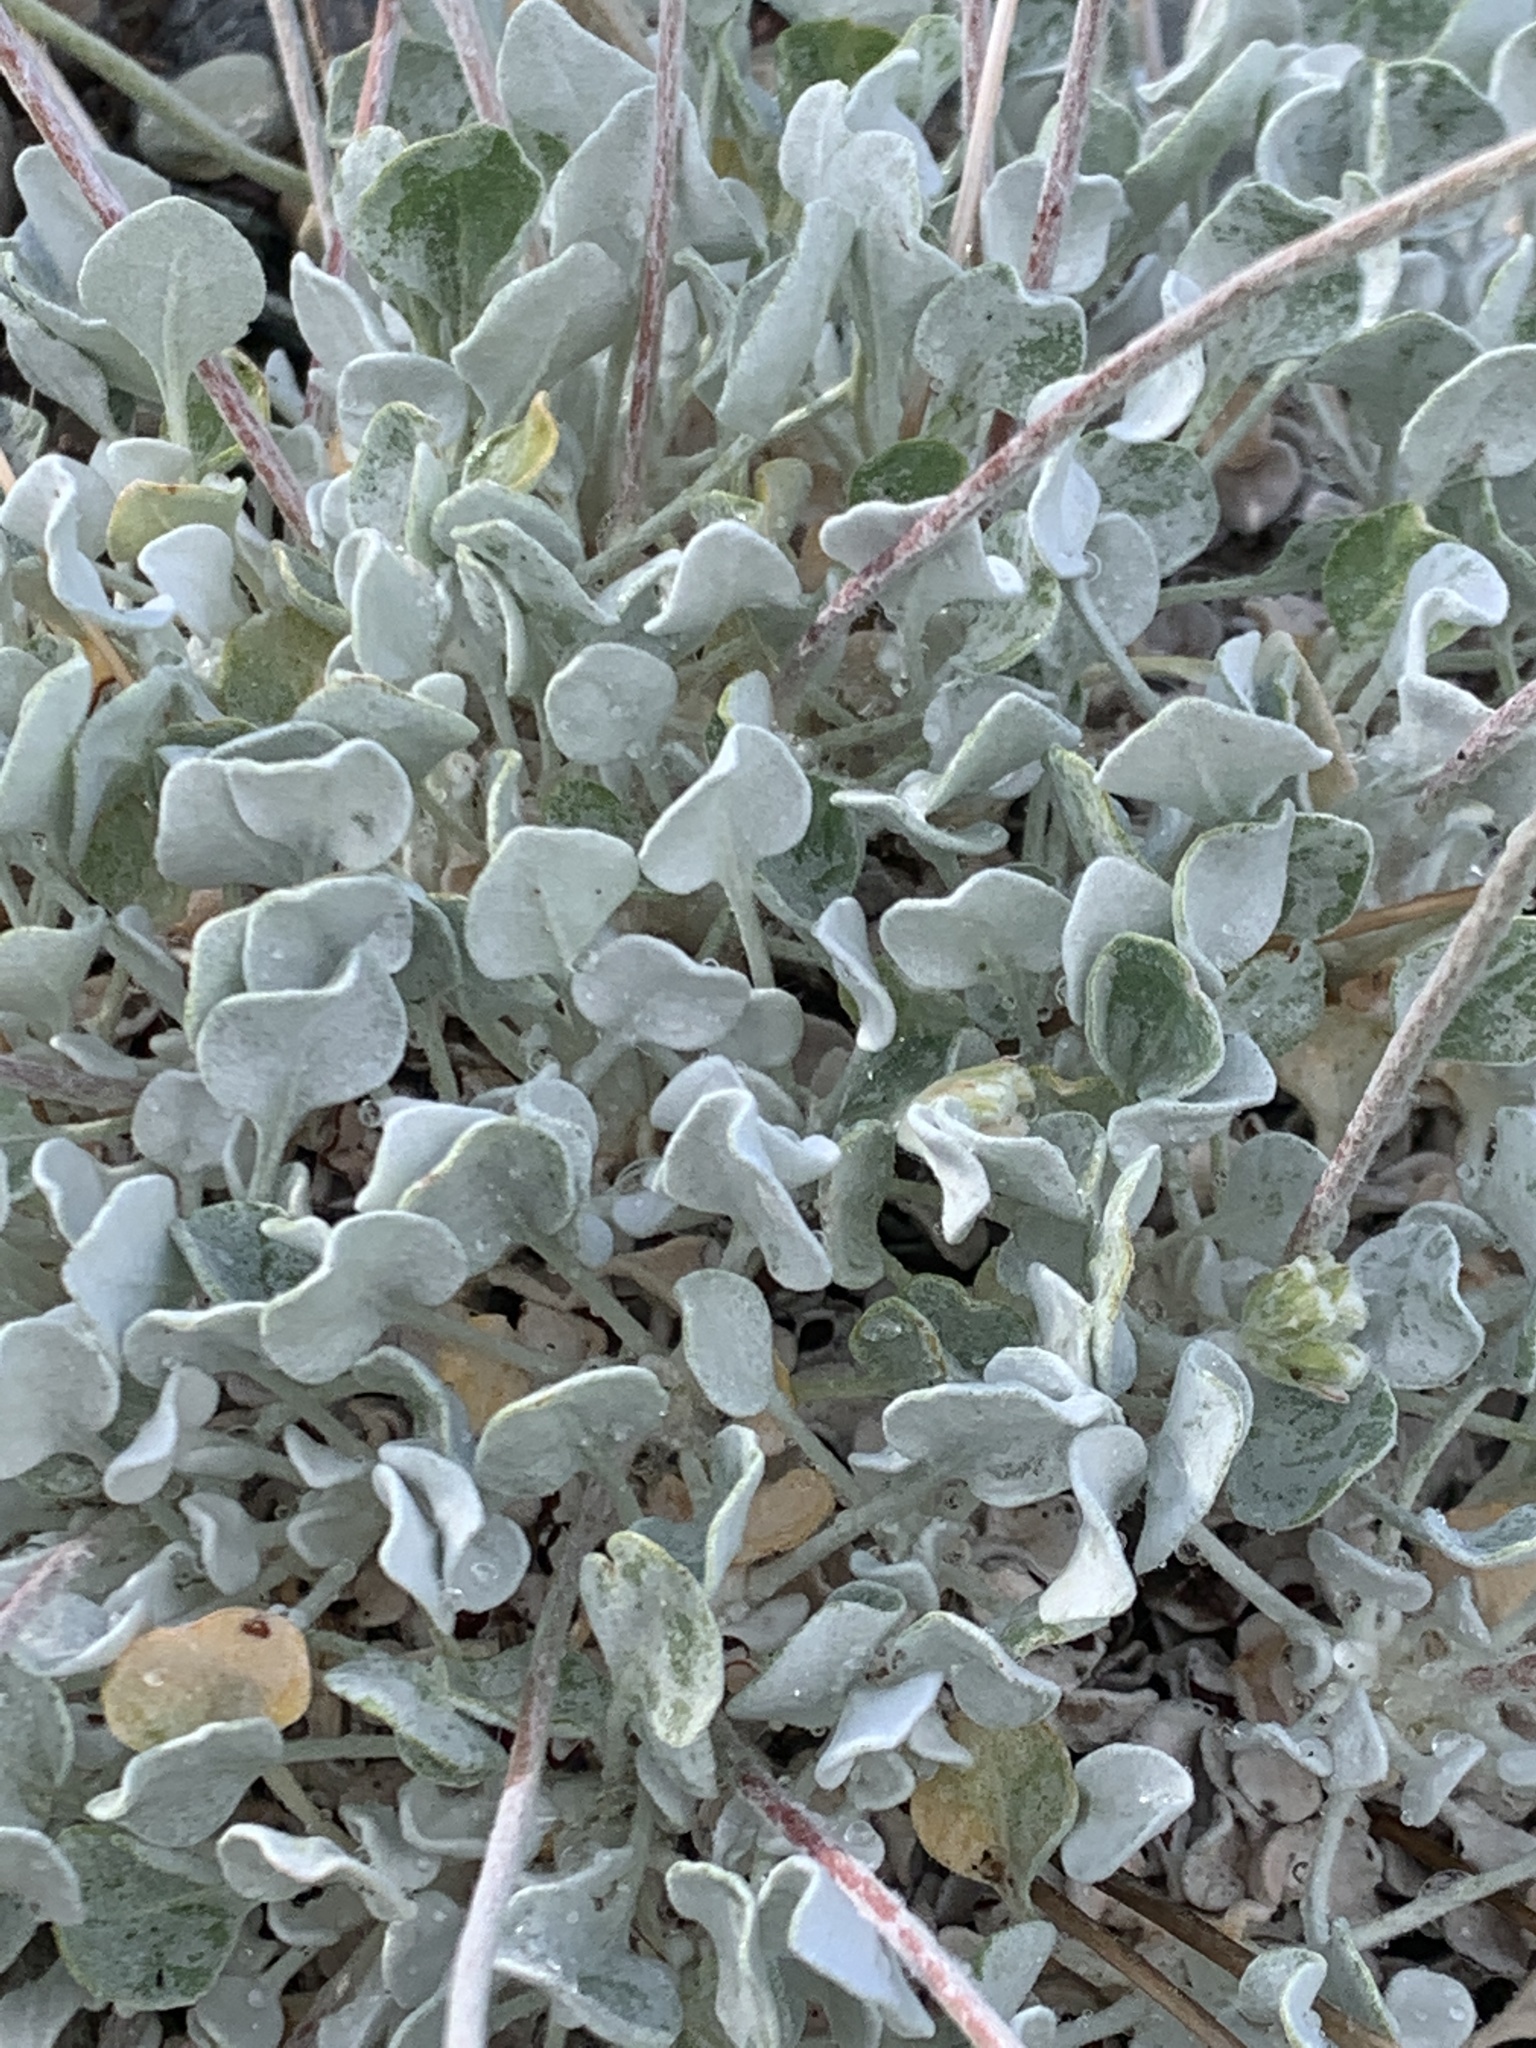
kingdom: Plantae
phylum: Tracheophyta
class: Magnoliopsida
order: Caryophyllales
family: Polygonaceae
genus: Eriogonum
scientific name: Eriogonum ovalifolium
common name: Cushion buckwheat
